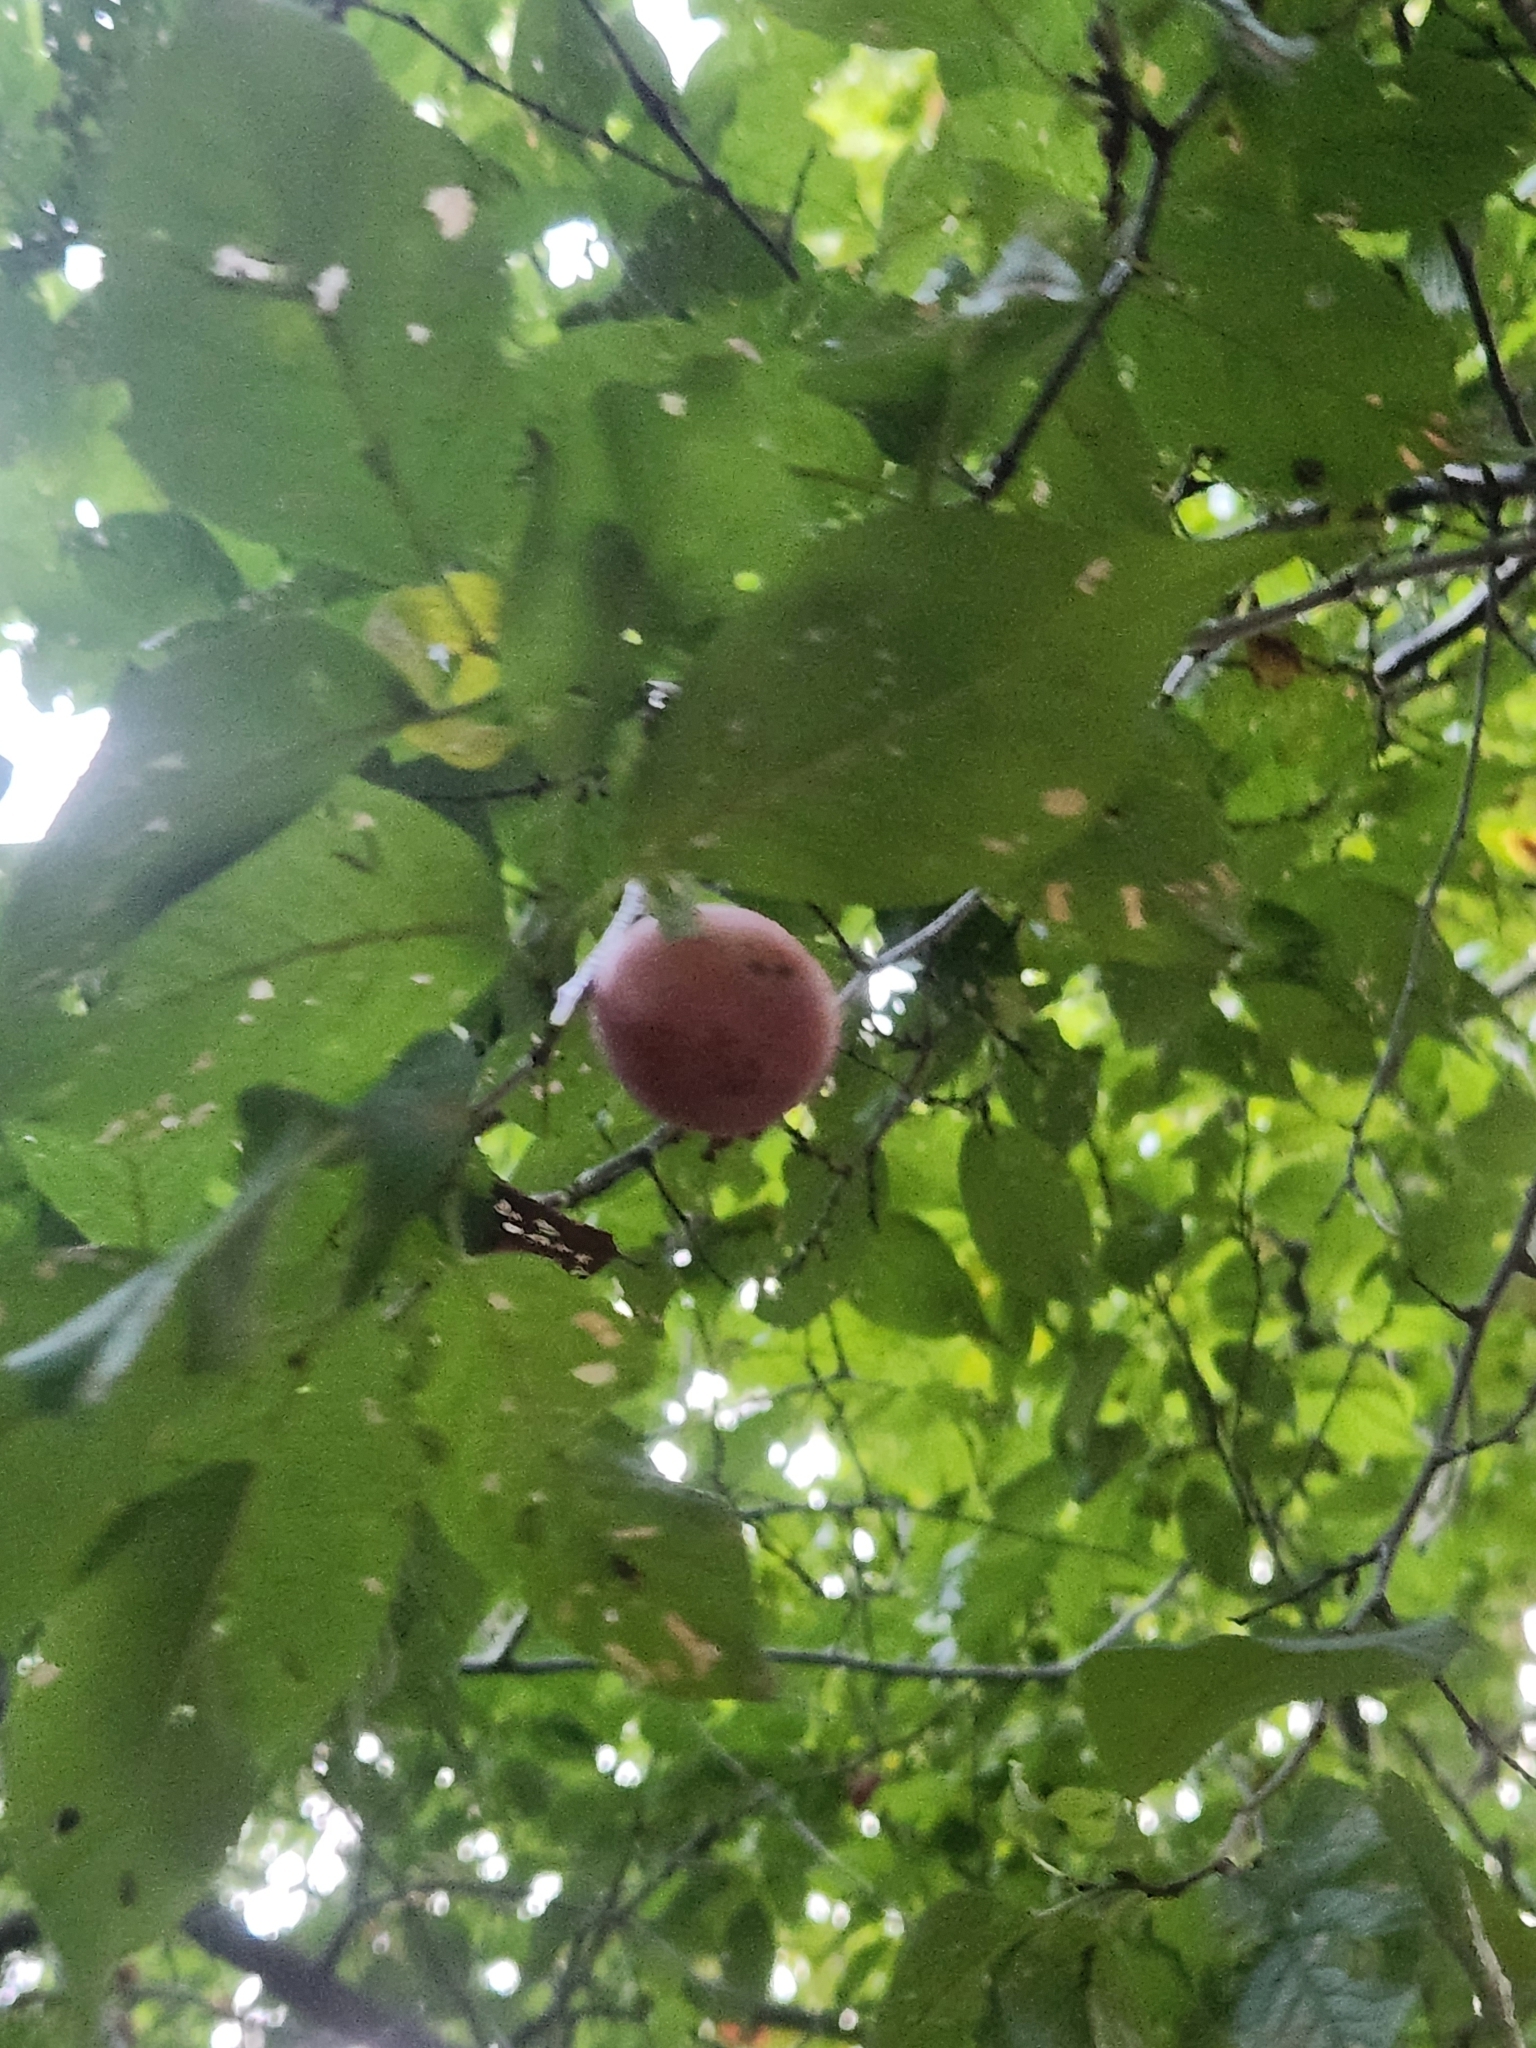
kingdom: Plantae
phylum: Tracheophyta
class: Magnoliopsida
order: Ericales
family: Ebenaceae
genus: Diospyros
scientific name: Diospyros virginiana
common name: Persimmon
